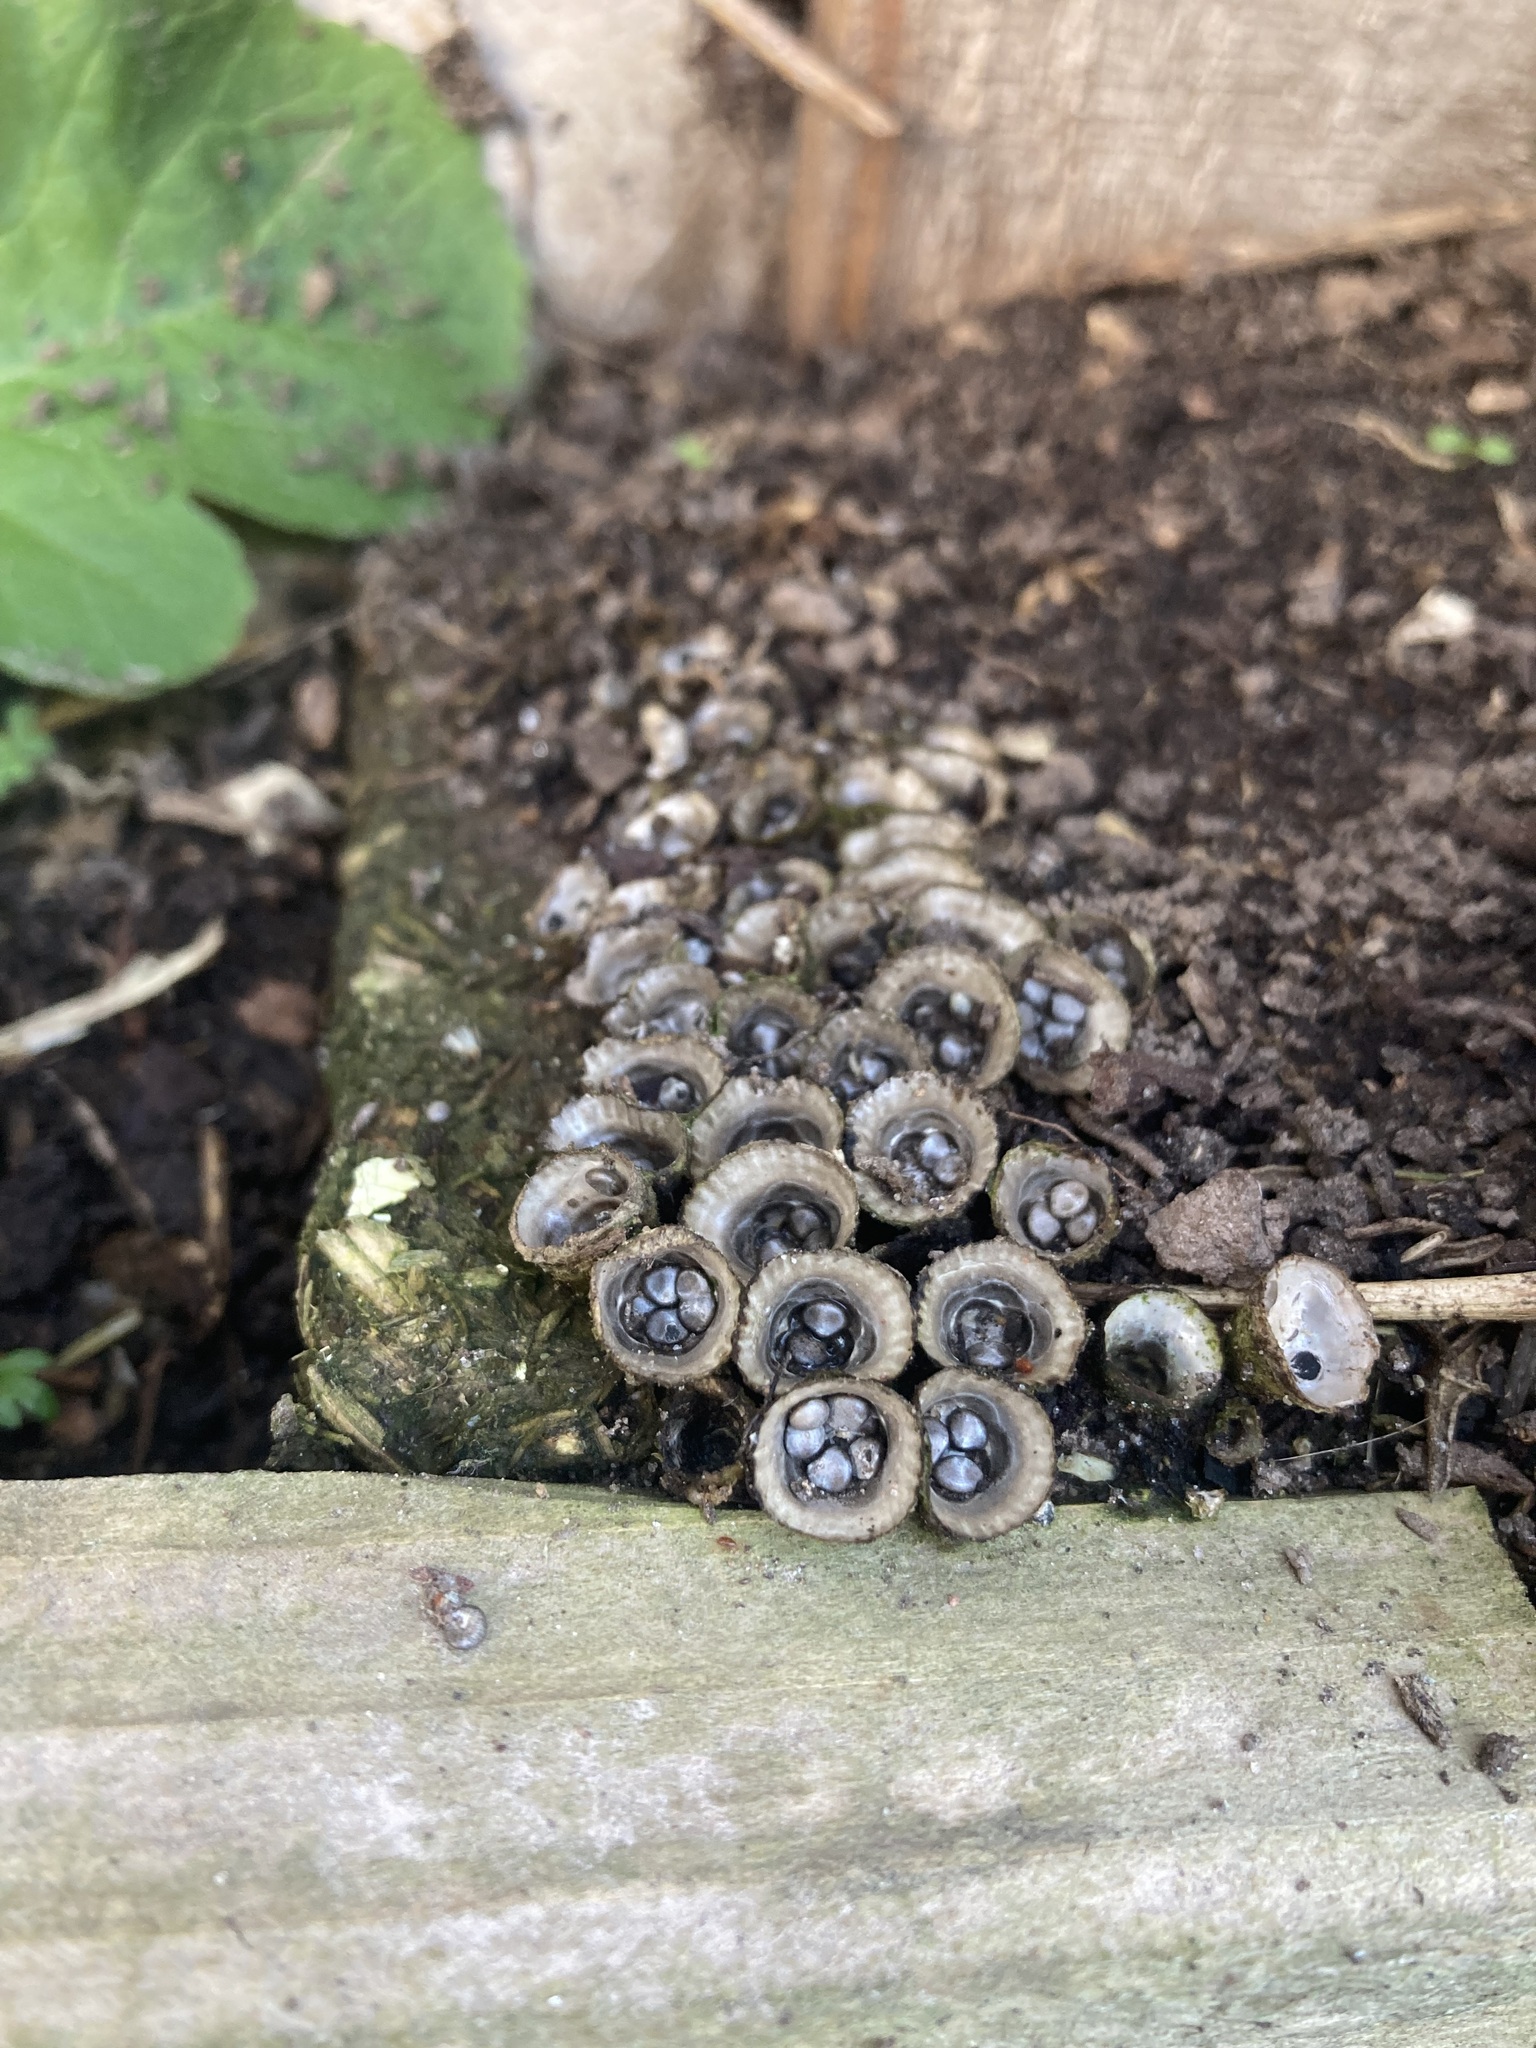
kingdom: Fungi
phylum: Basidiomycota
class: Agaricomycetes
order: Agaricales
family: Agaricaceae
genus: Cyathus
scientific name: Cyathus olla
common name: Field bird's nest
